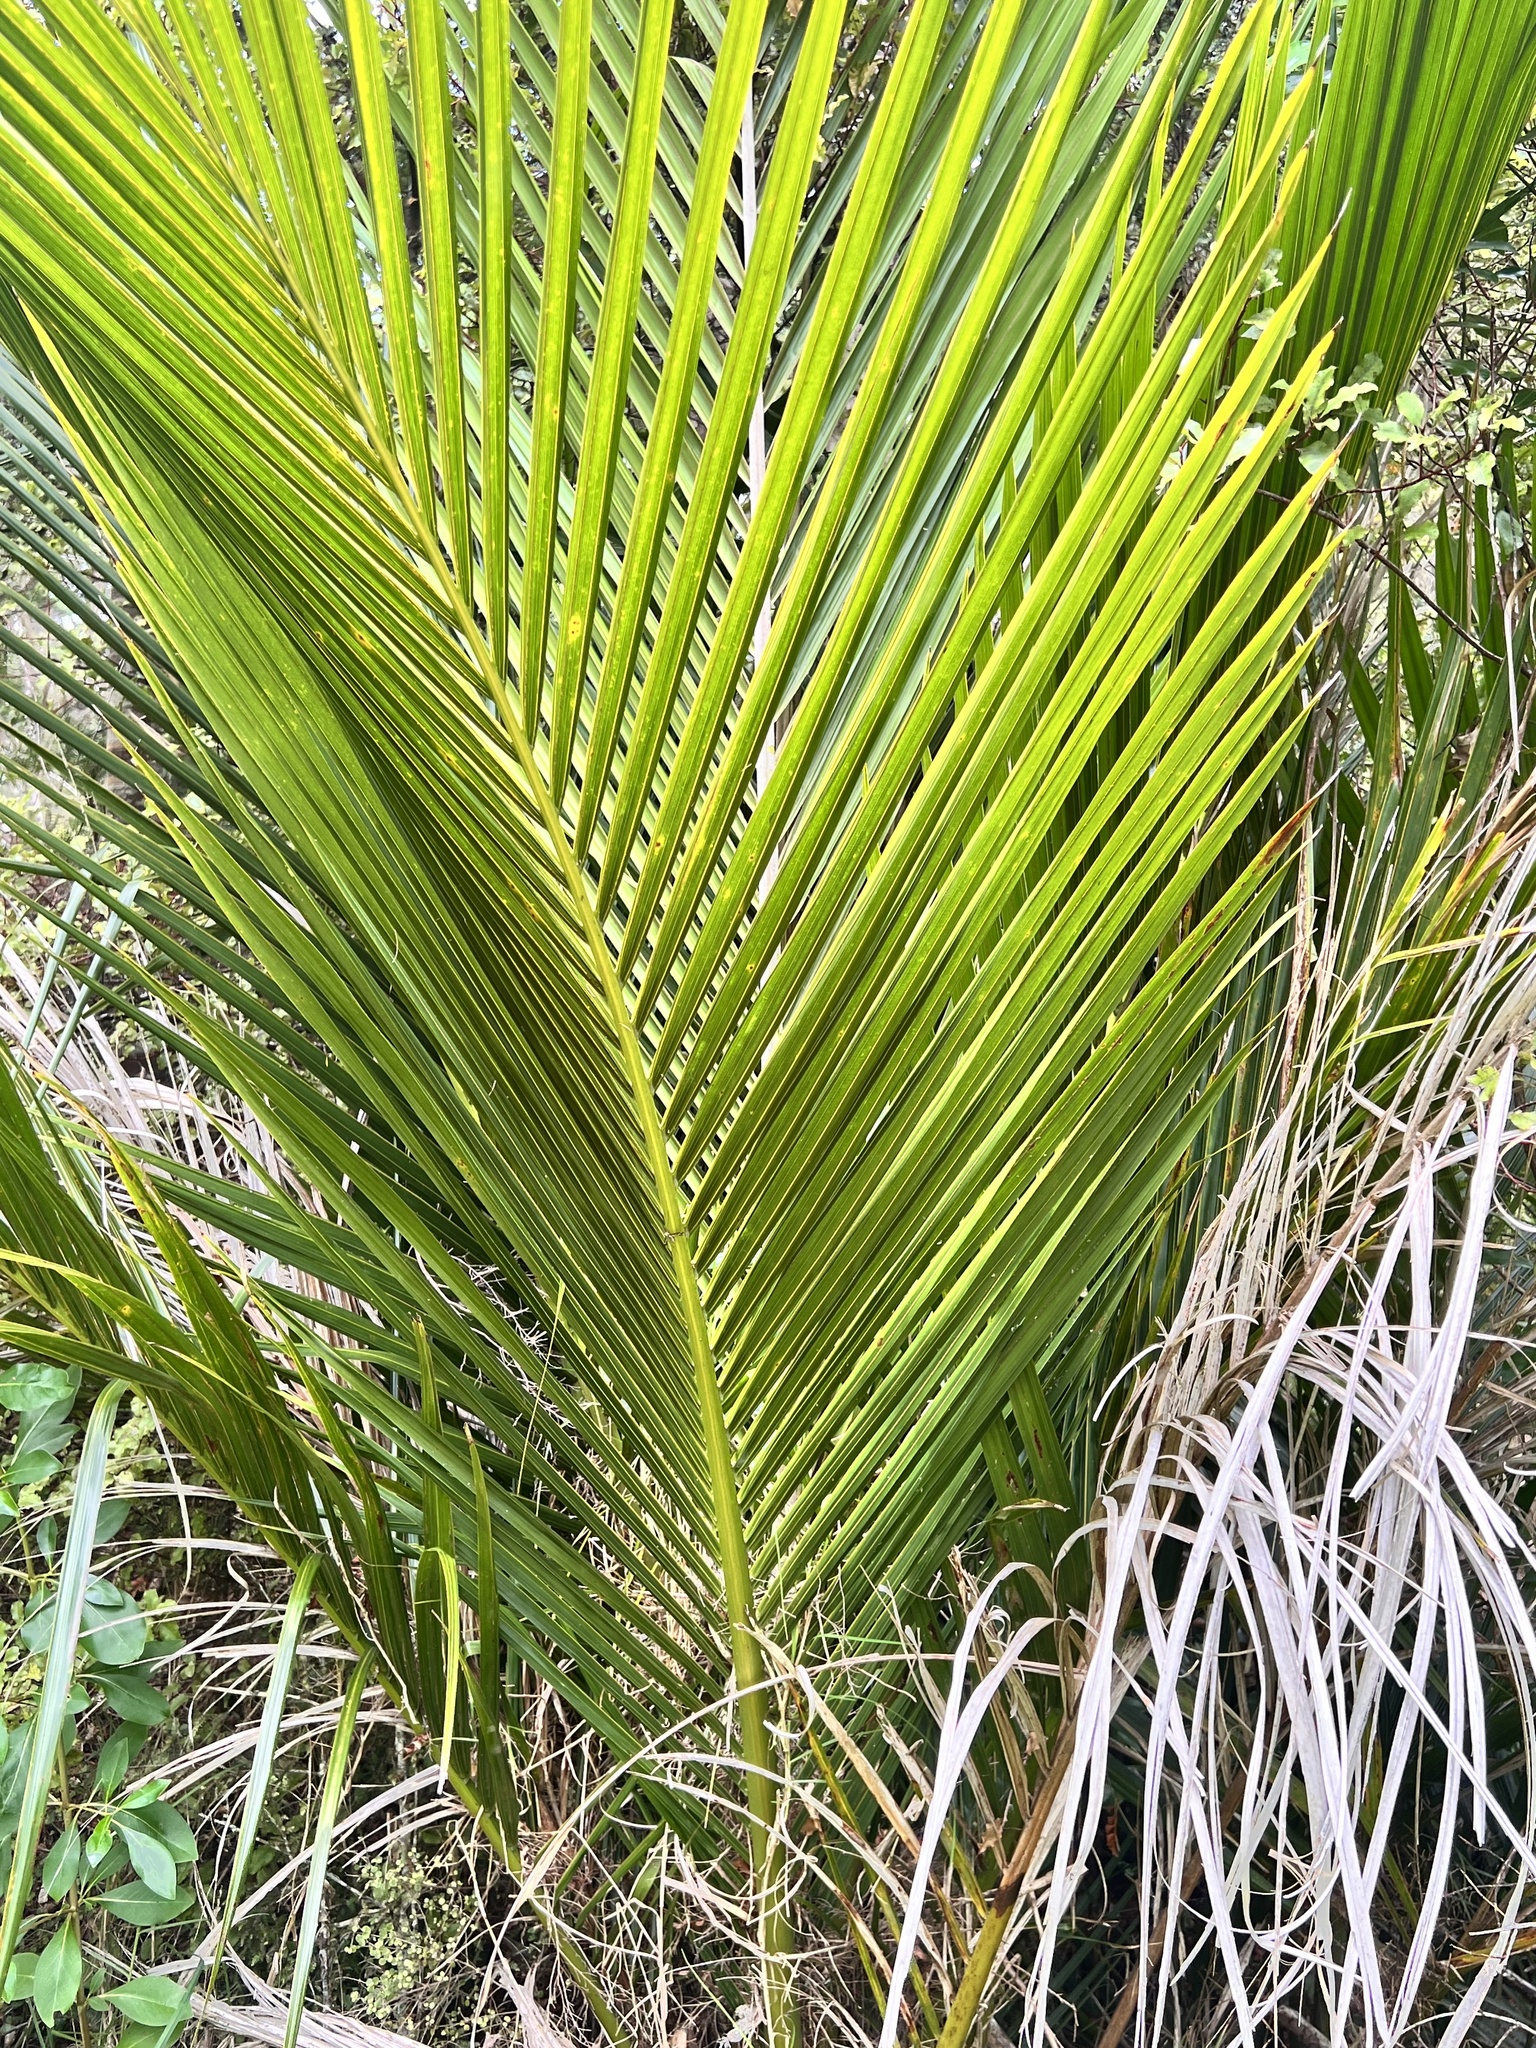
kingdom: Plantae
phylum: Tracheophyta
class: Liliopsida
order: Arecales
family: Arecaceae
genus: Rhopalostylis
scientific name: Rhopalostylis sapida
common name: Feather-duster palm
